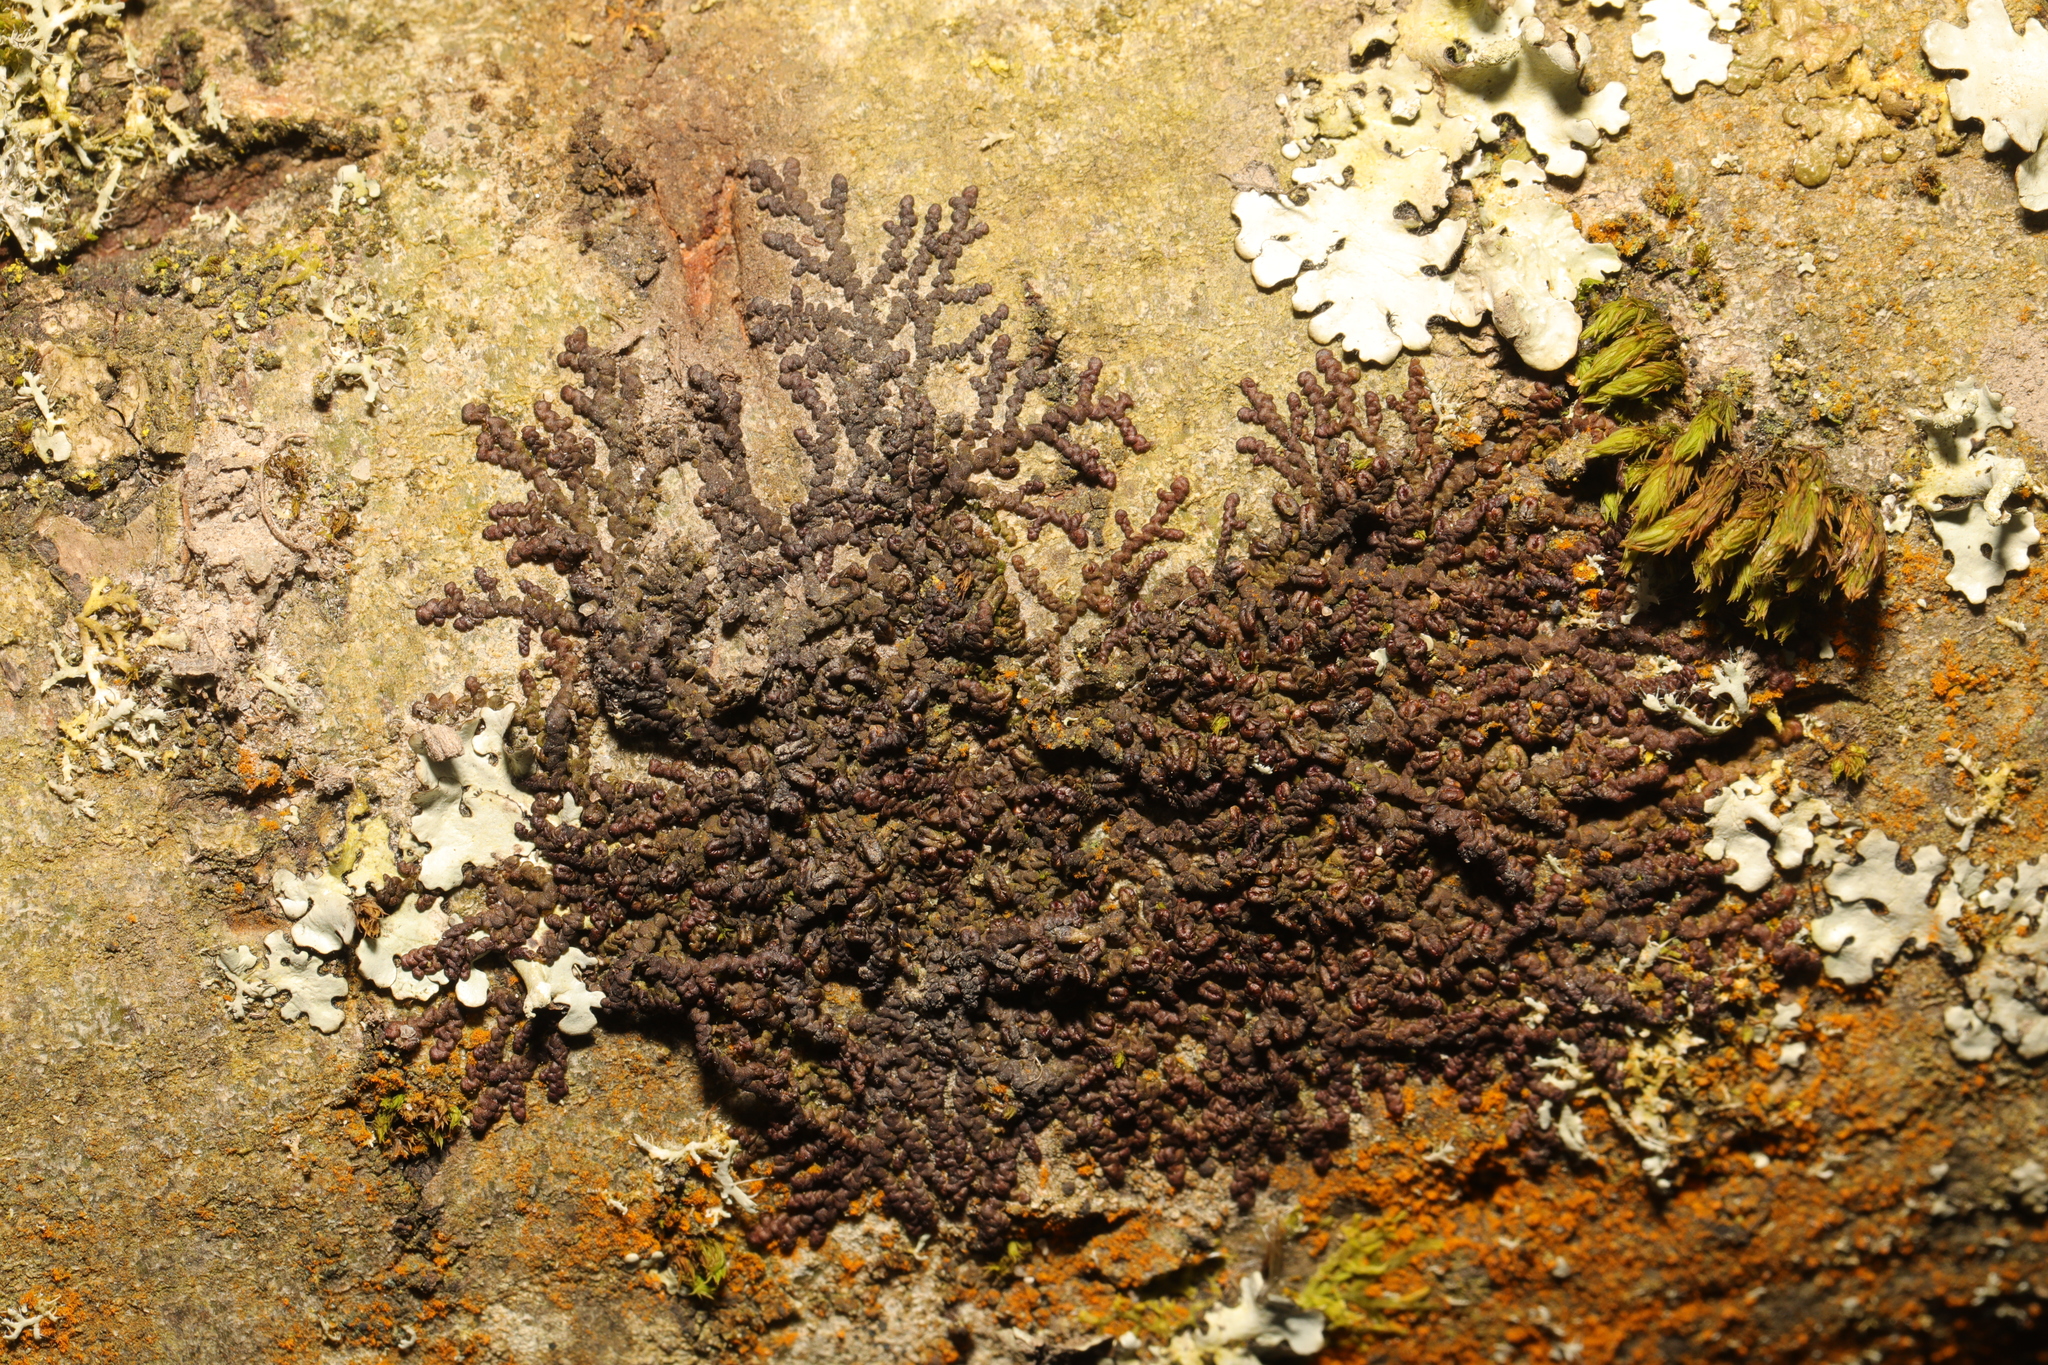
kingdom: Plantae
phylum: Marchantiophyta
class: Jungermanniopsida
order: Porellales
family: Frullaniaceae
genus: Frullania
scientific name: Frullania dilatata
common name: Dilated scalewort
